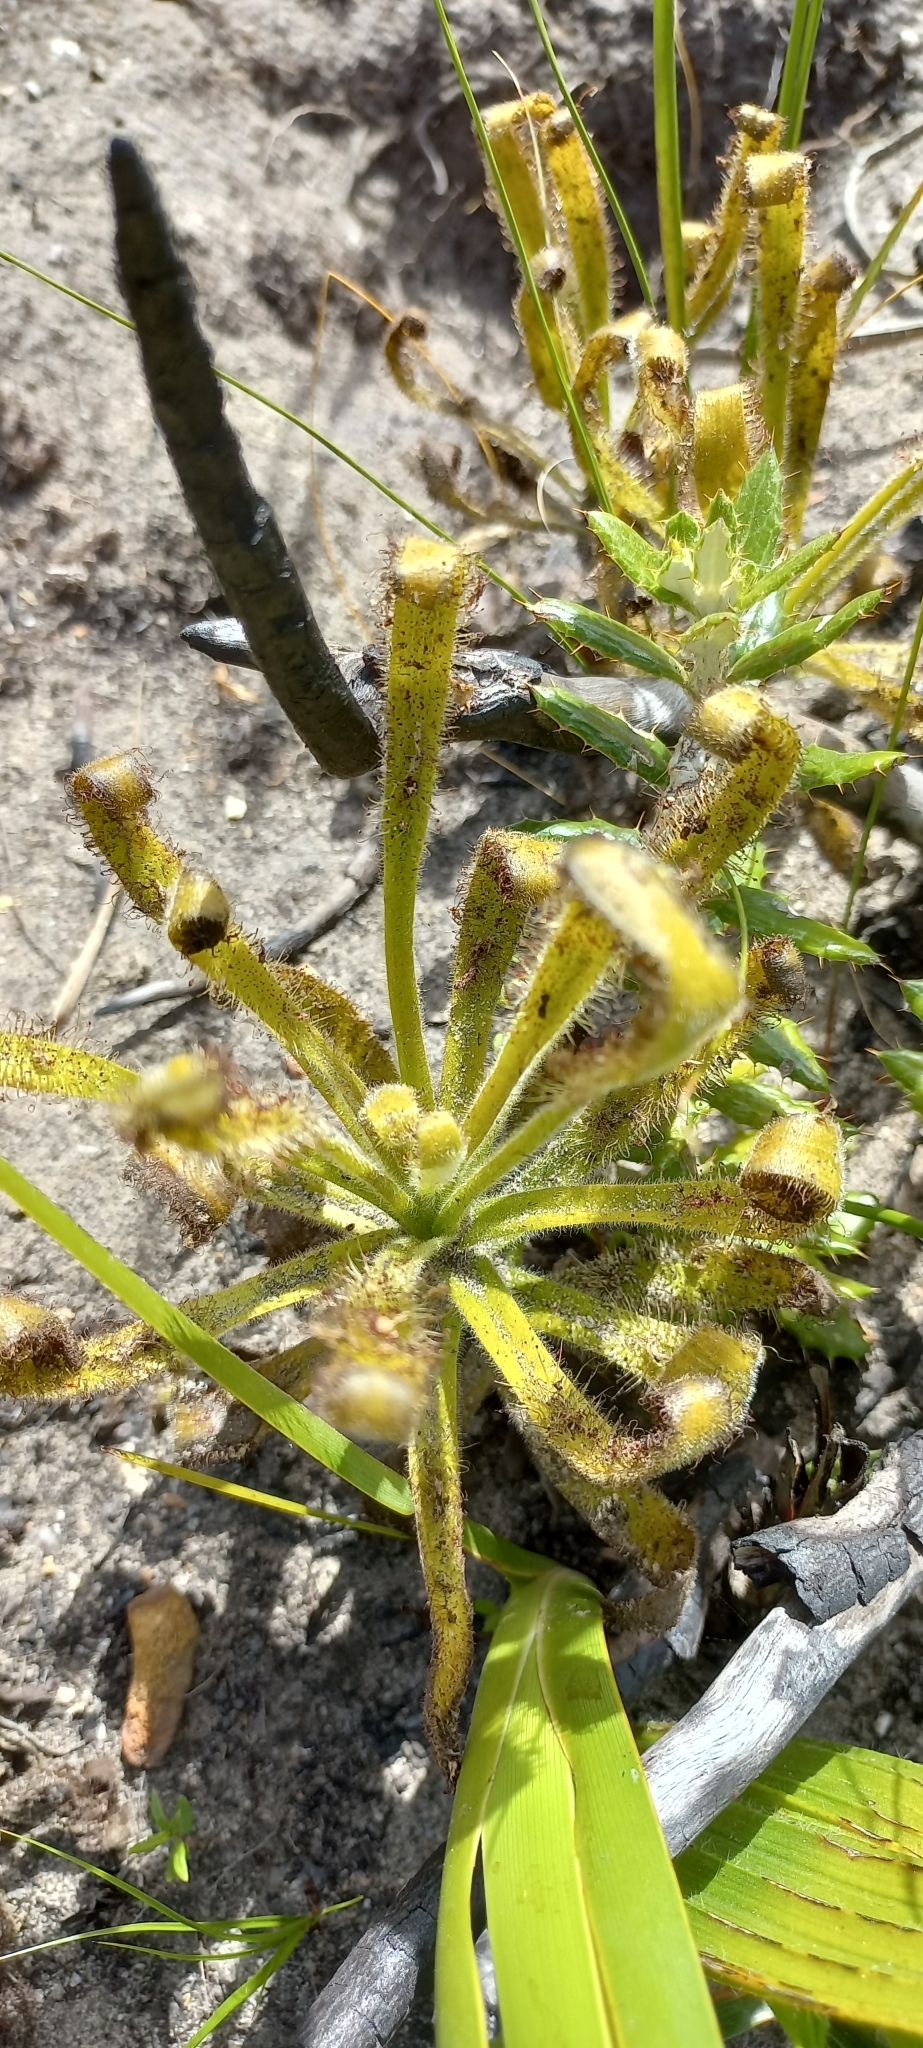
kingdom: Plantae
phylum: Tracheophyta
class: Magnoliopsida
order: Caryophyllales
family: Droseraceae
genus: Drosera
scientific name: Drosera hilaris
